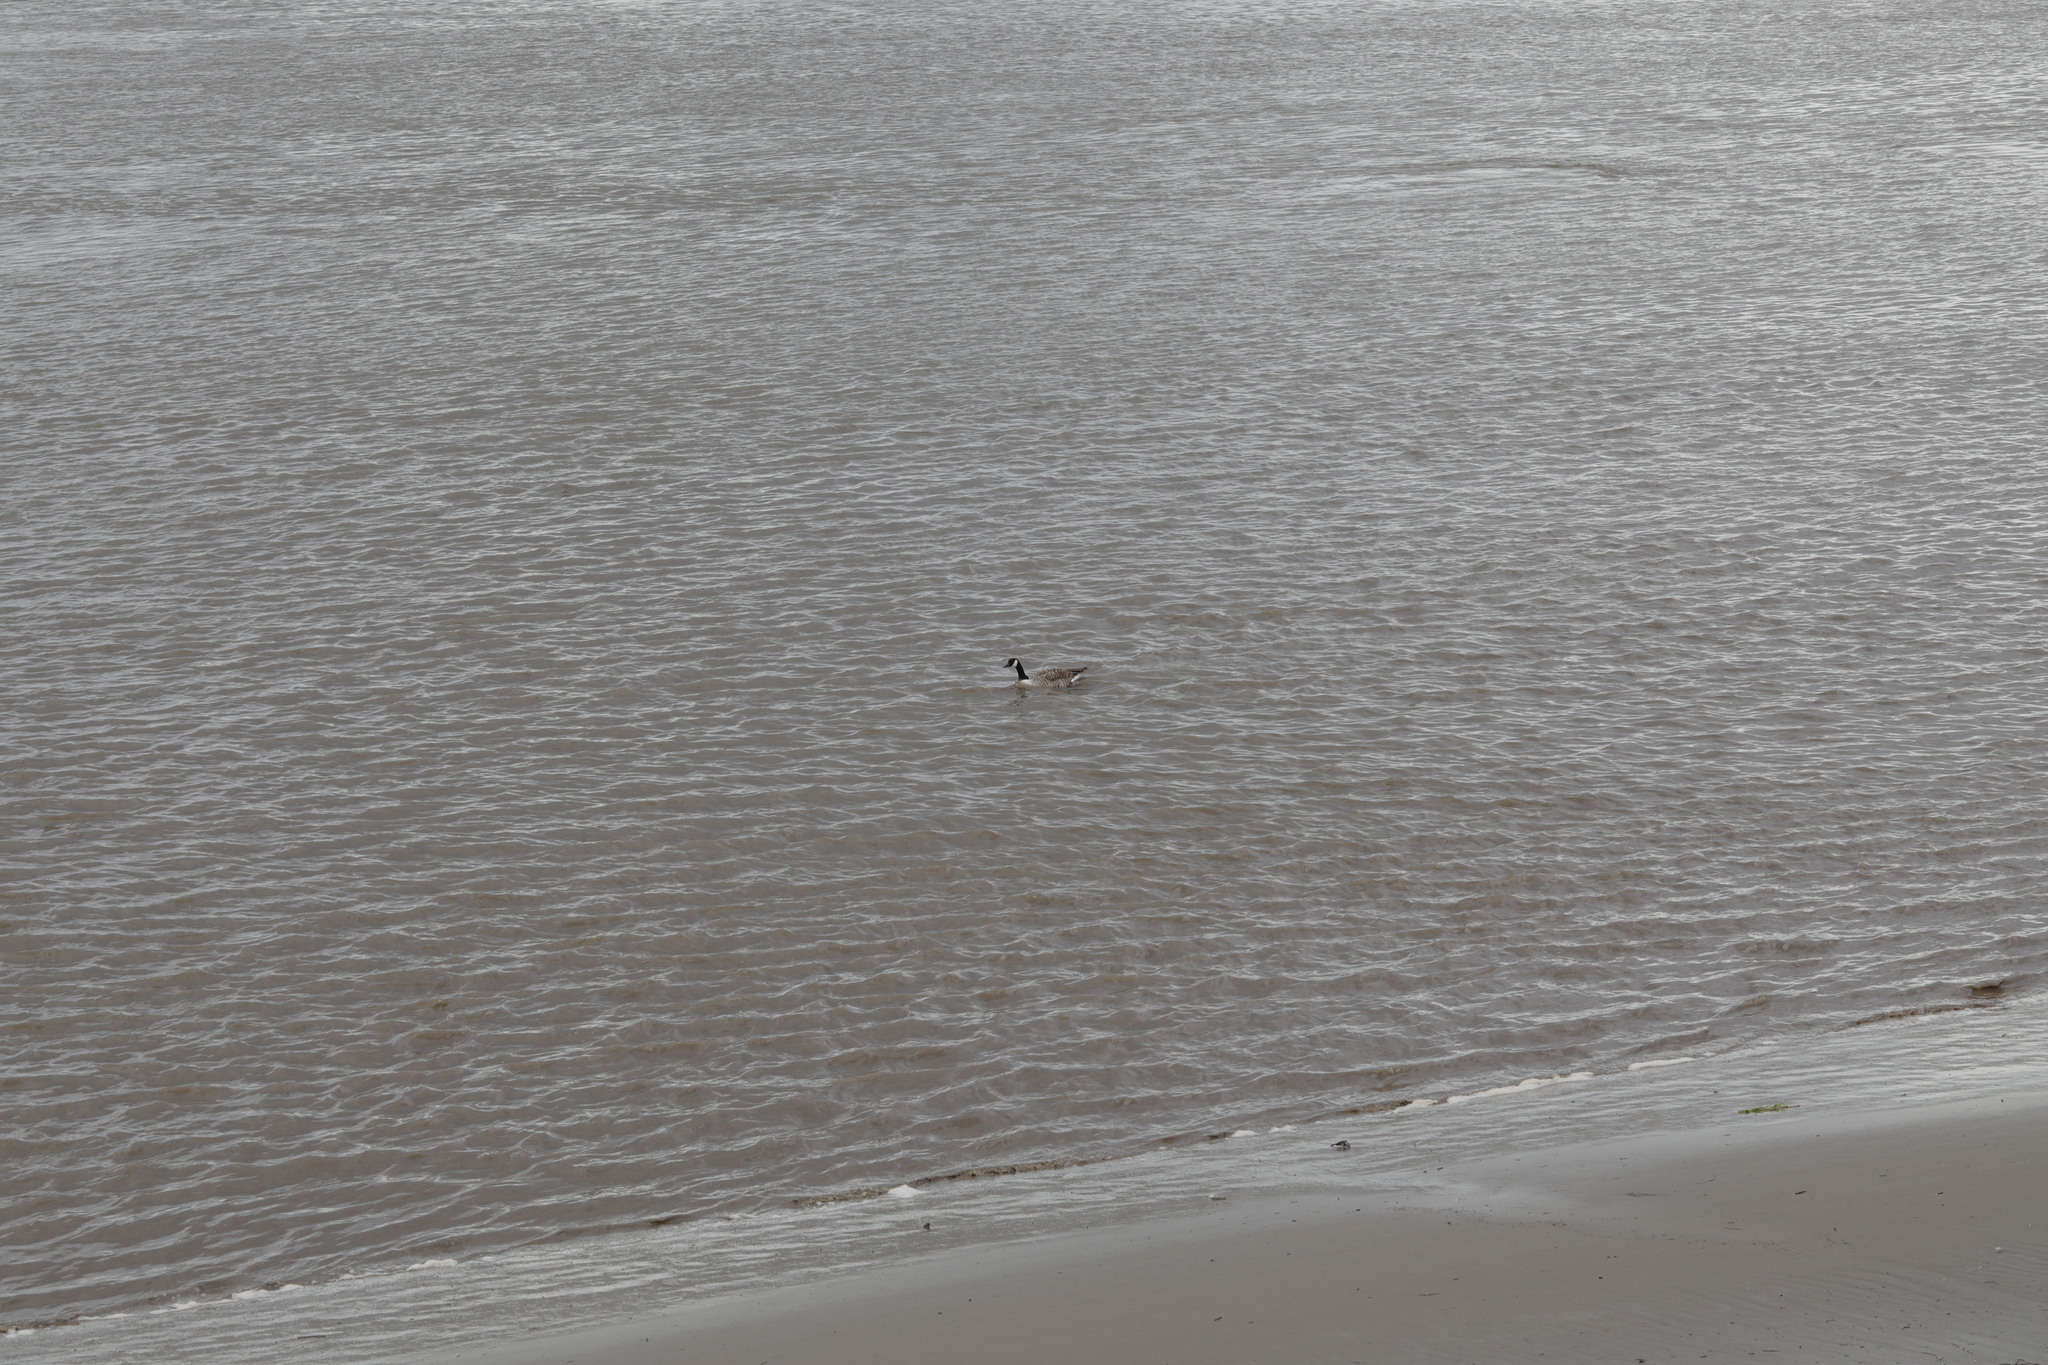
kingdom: Animalia
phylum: Chordata
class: Aves
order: Anseriformes
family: Anatidae
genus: Branta
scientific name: Branta canadensis
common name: Canada goose
